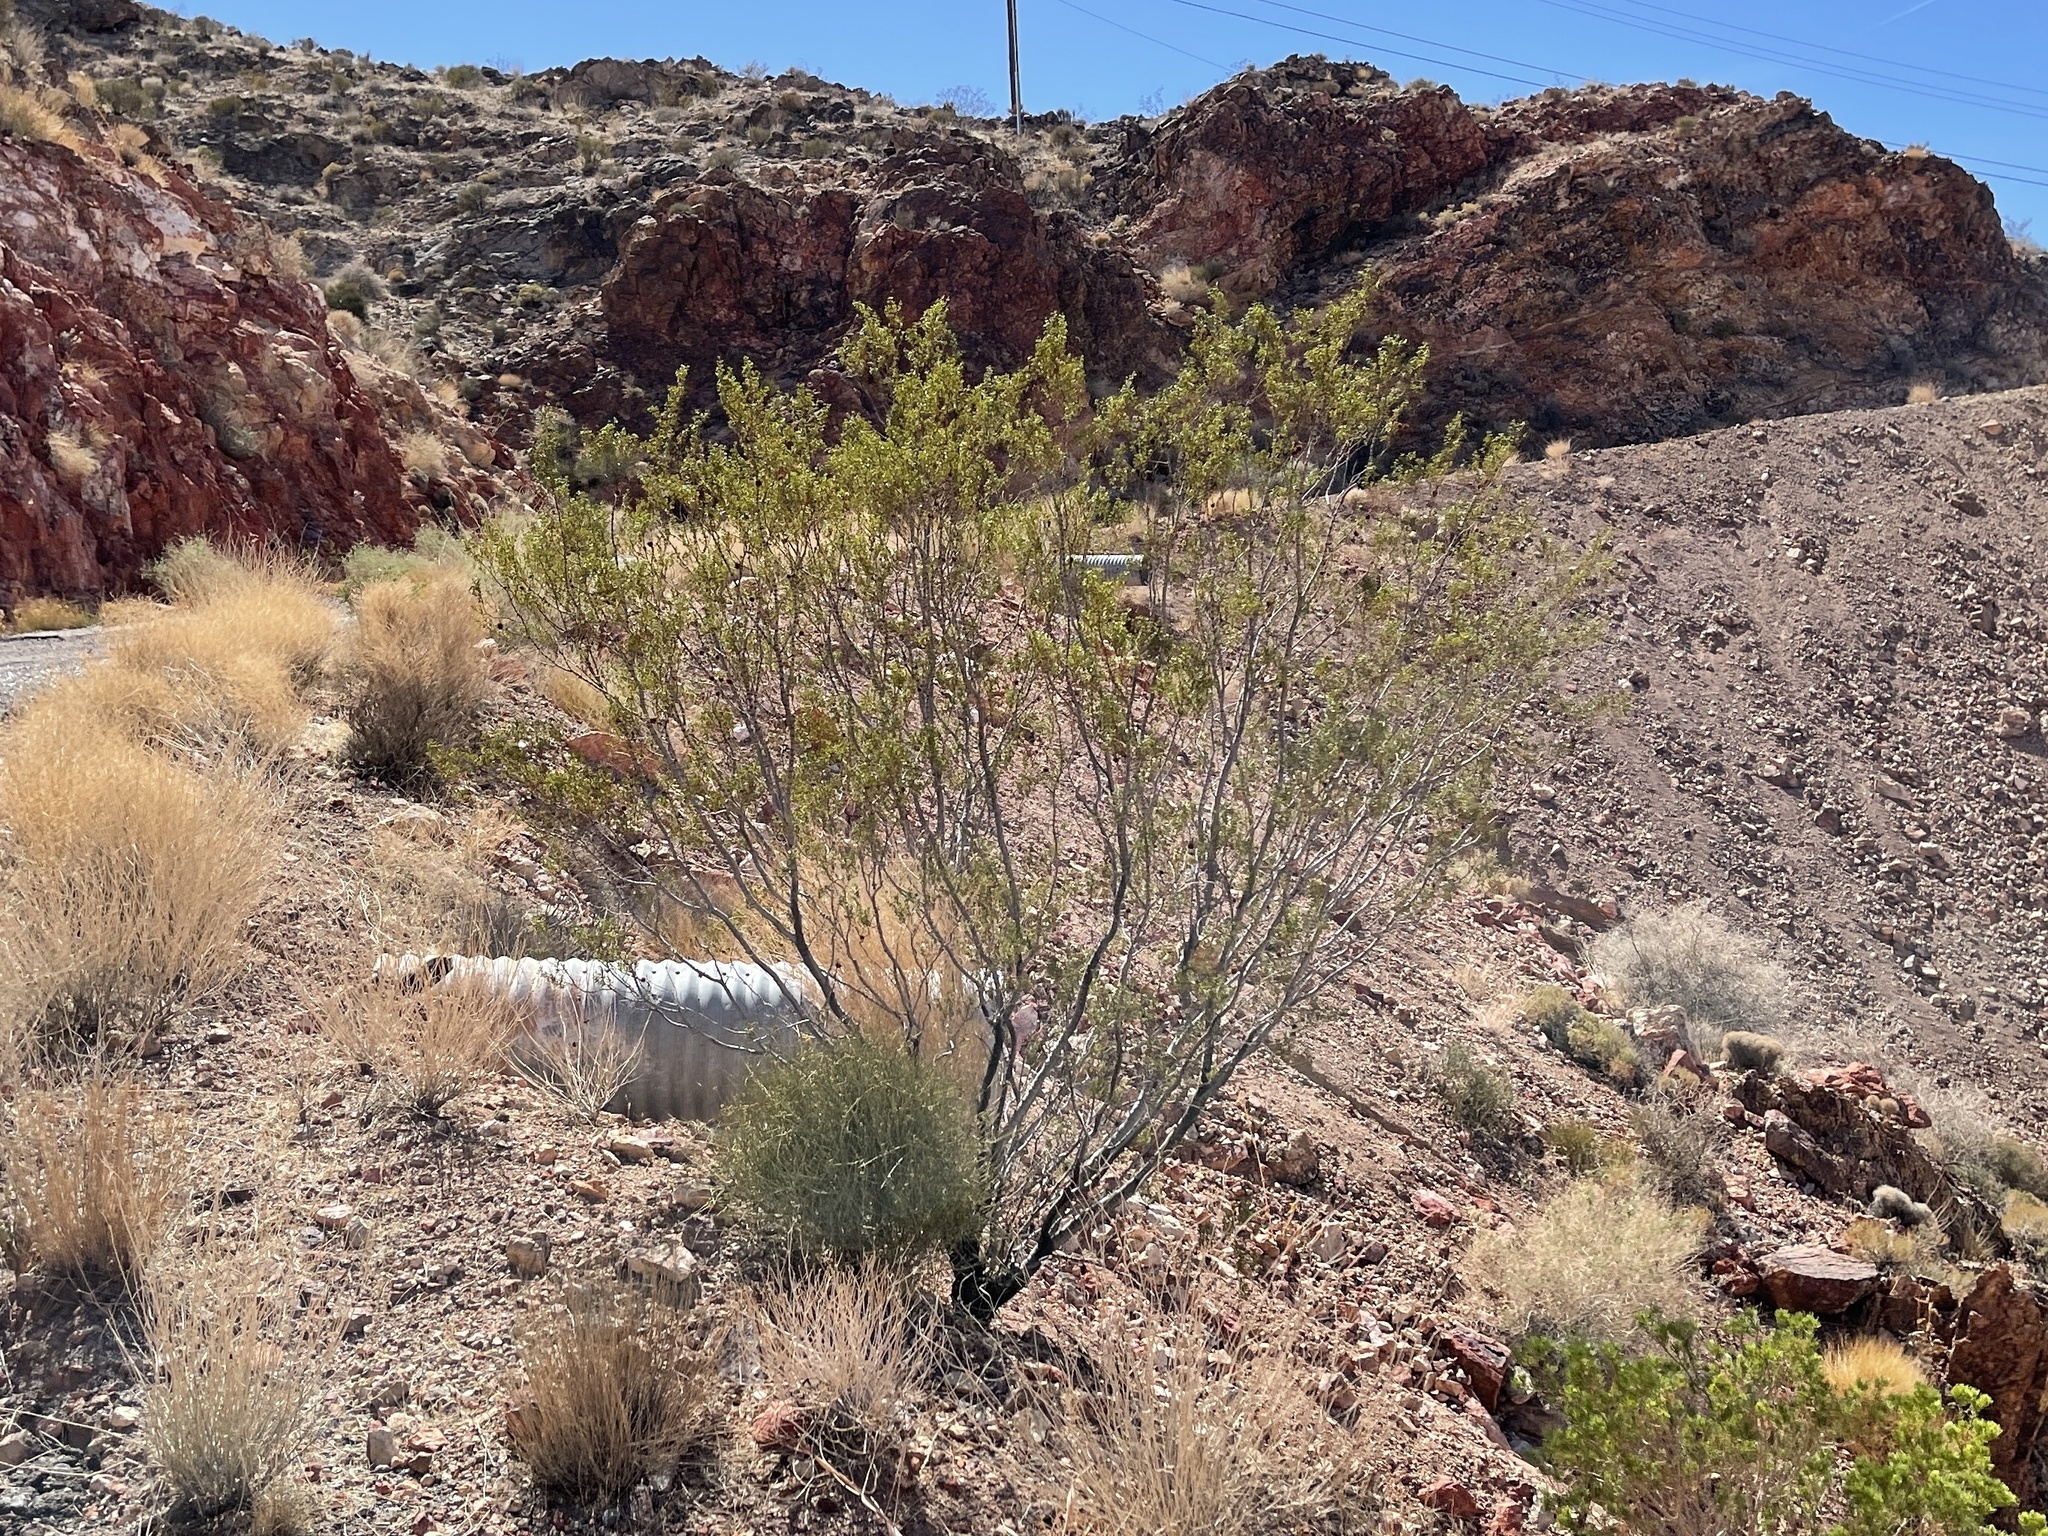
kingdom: Plantae
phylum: Tracheophyta
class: Magnoliopsida
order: Zygophyllales
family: Zygophyllaceae
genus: Larrea
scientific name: Larrea tridentata
